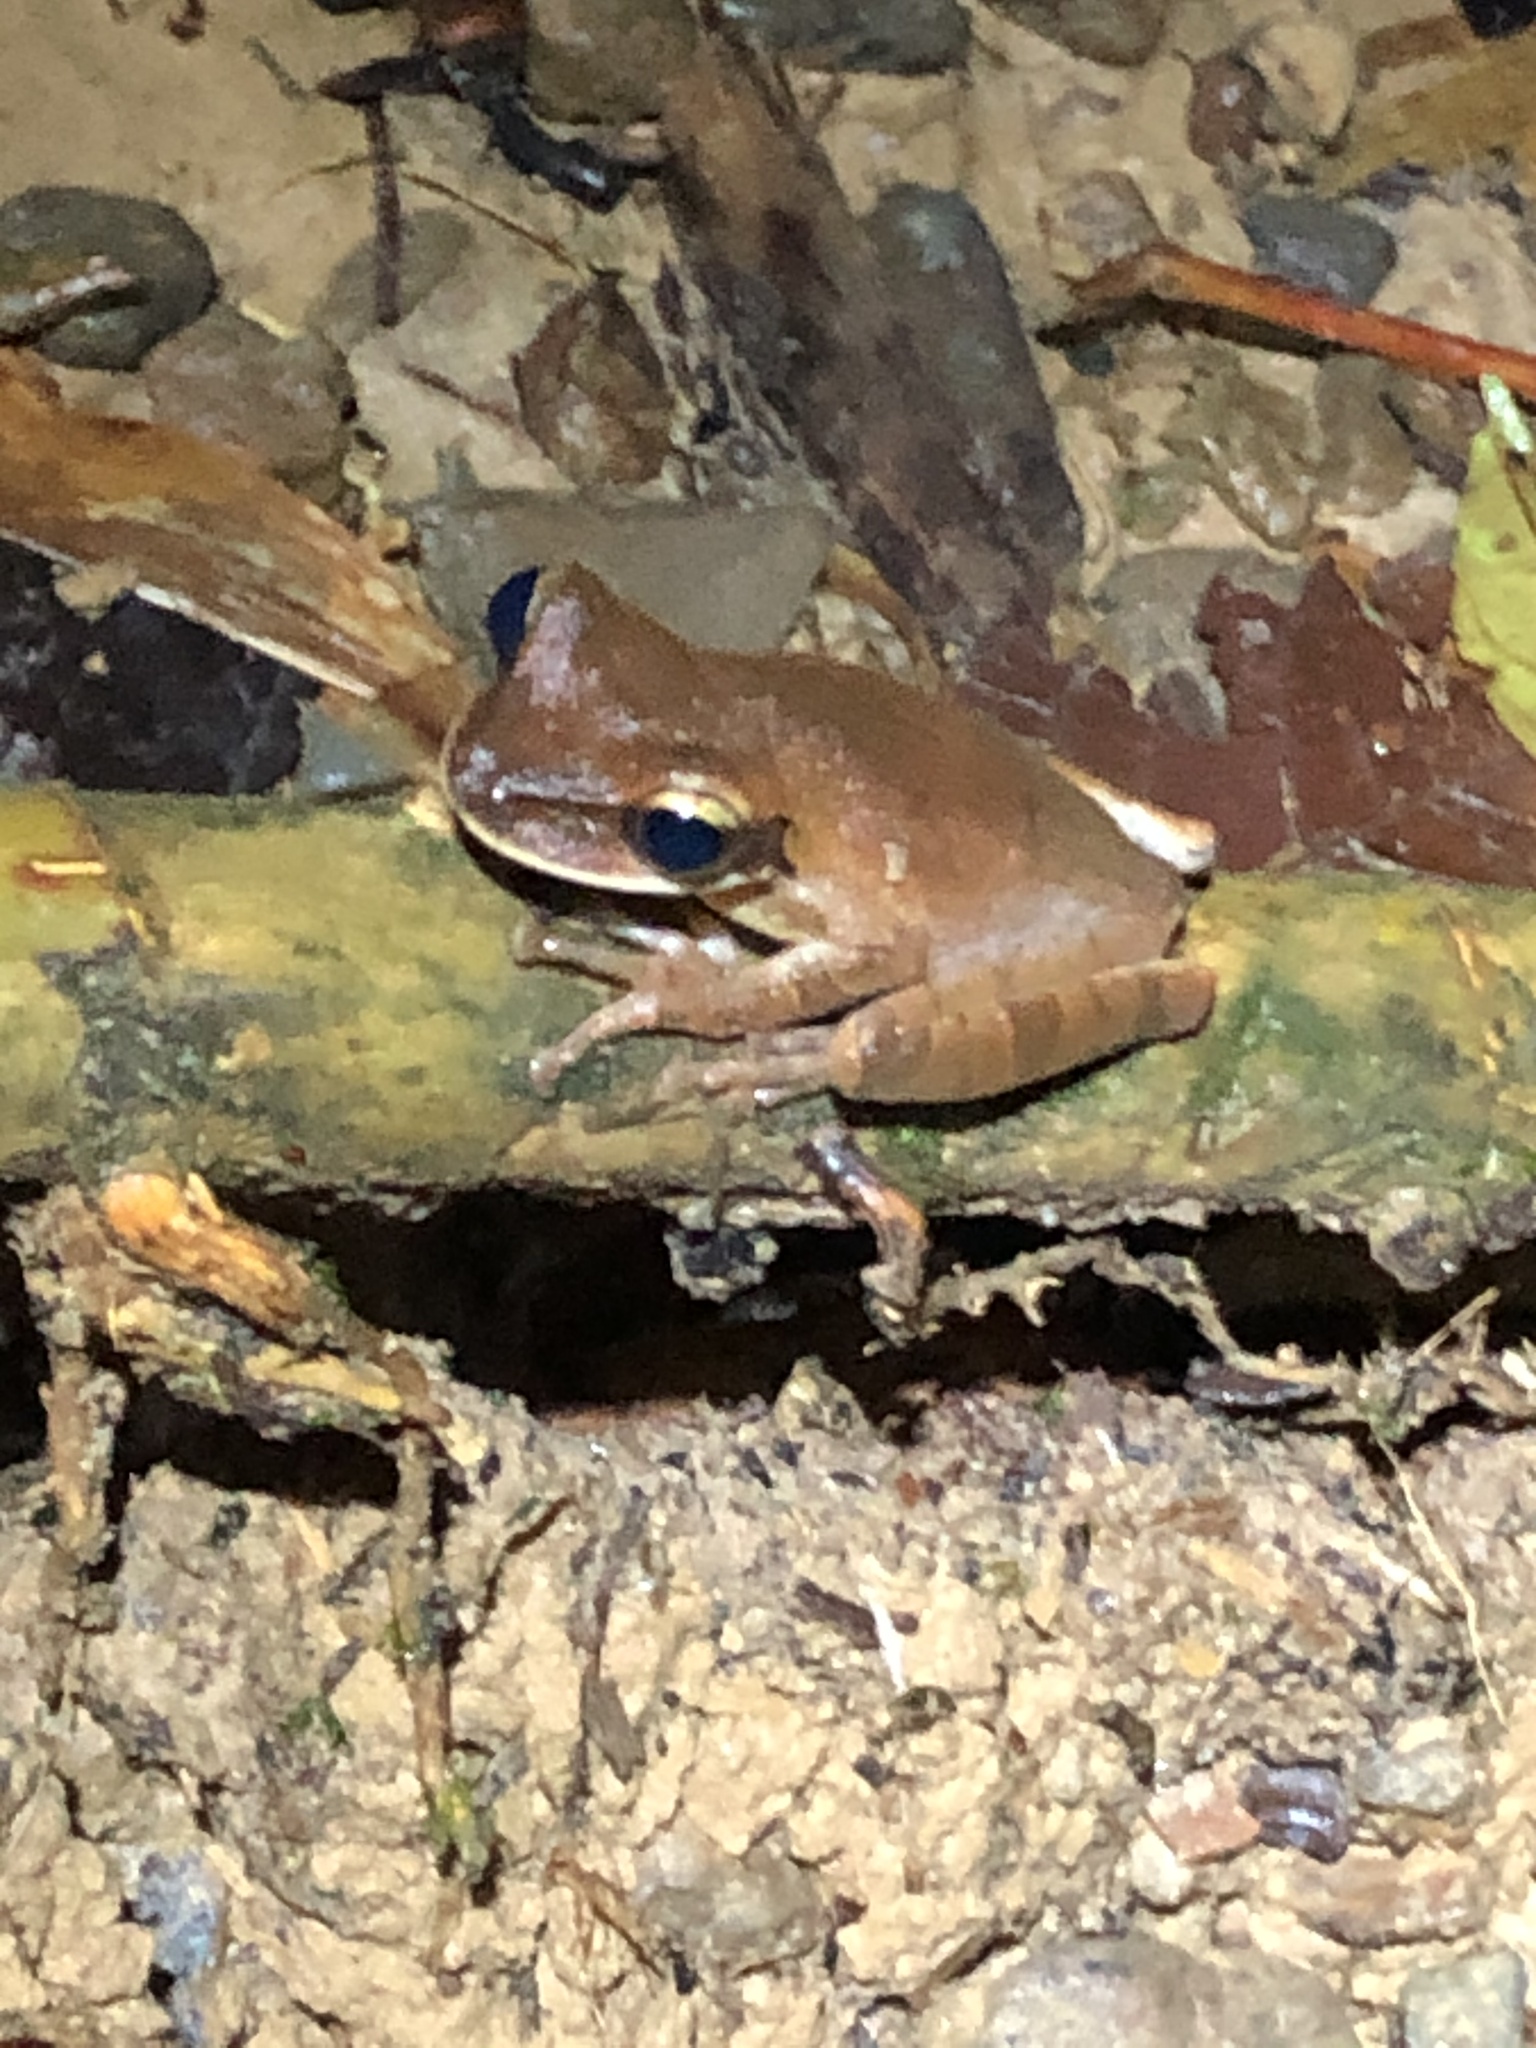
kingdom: Animalia
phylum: Chordata
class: Amphibia
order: Anura
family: Hylidae
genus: Osteocephalus
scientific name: Osteocephalus castaneicola
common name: Chestnut's slender-legged treefrog
